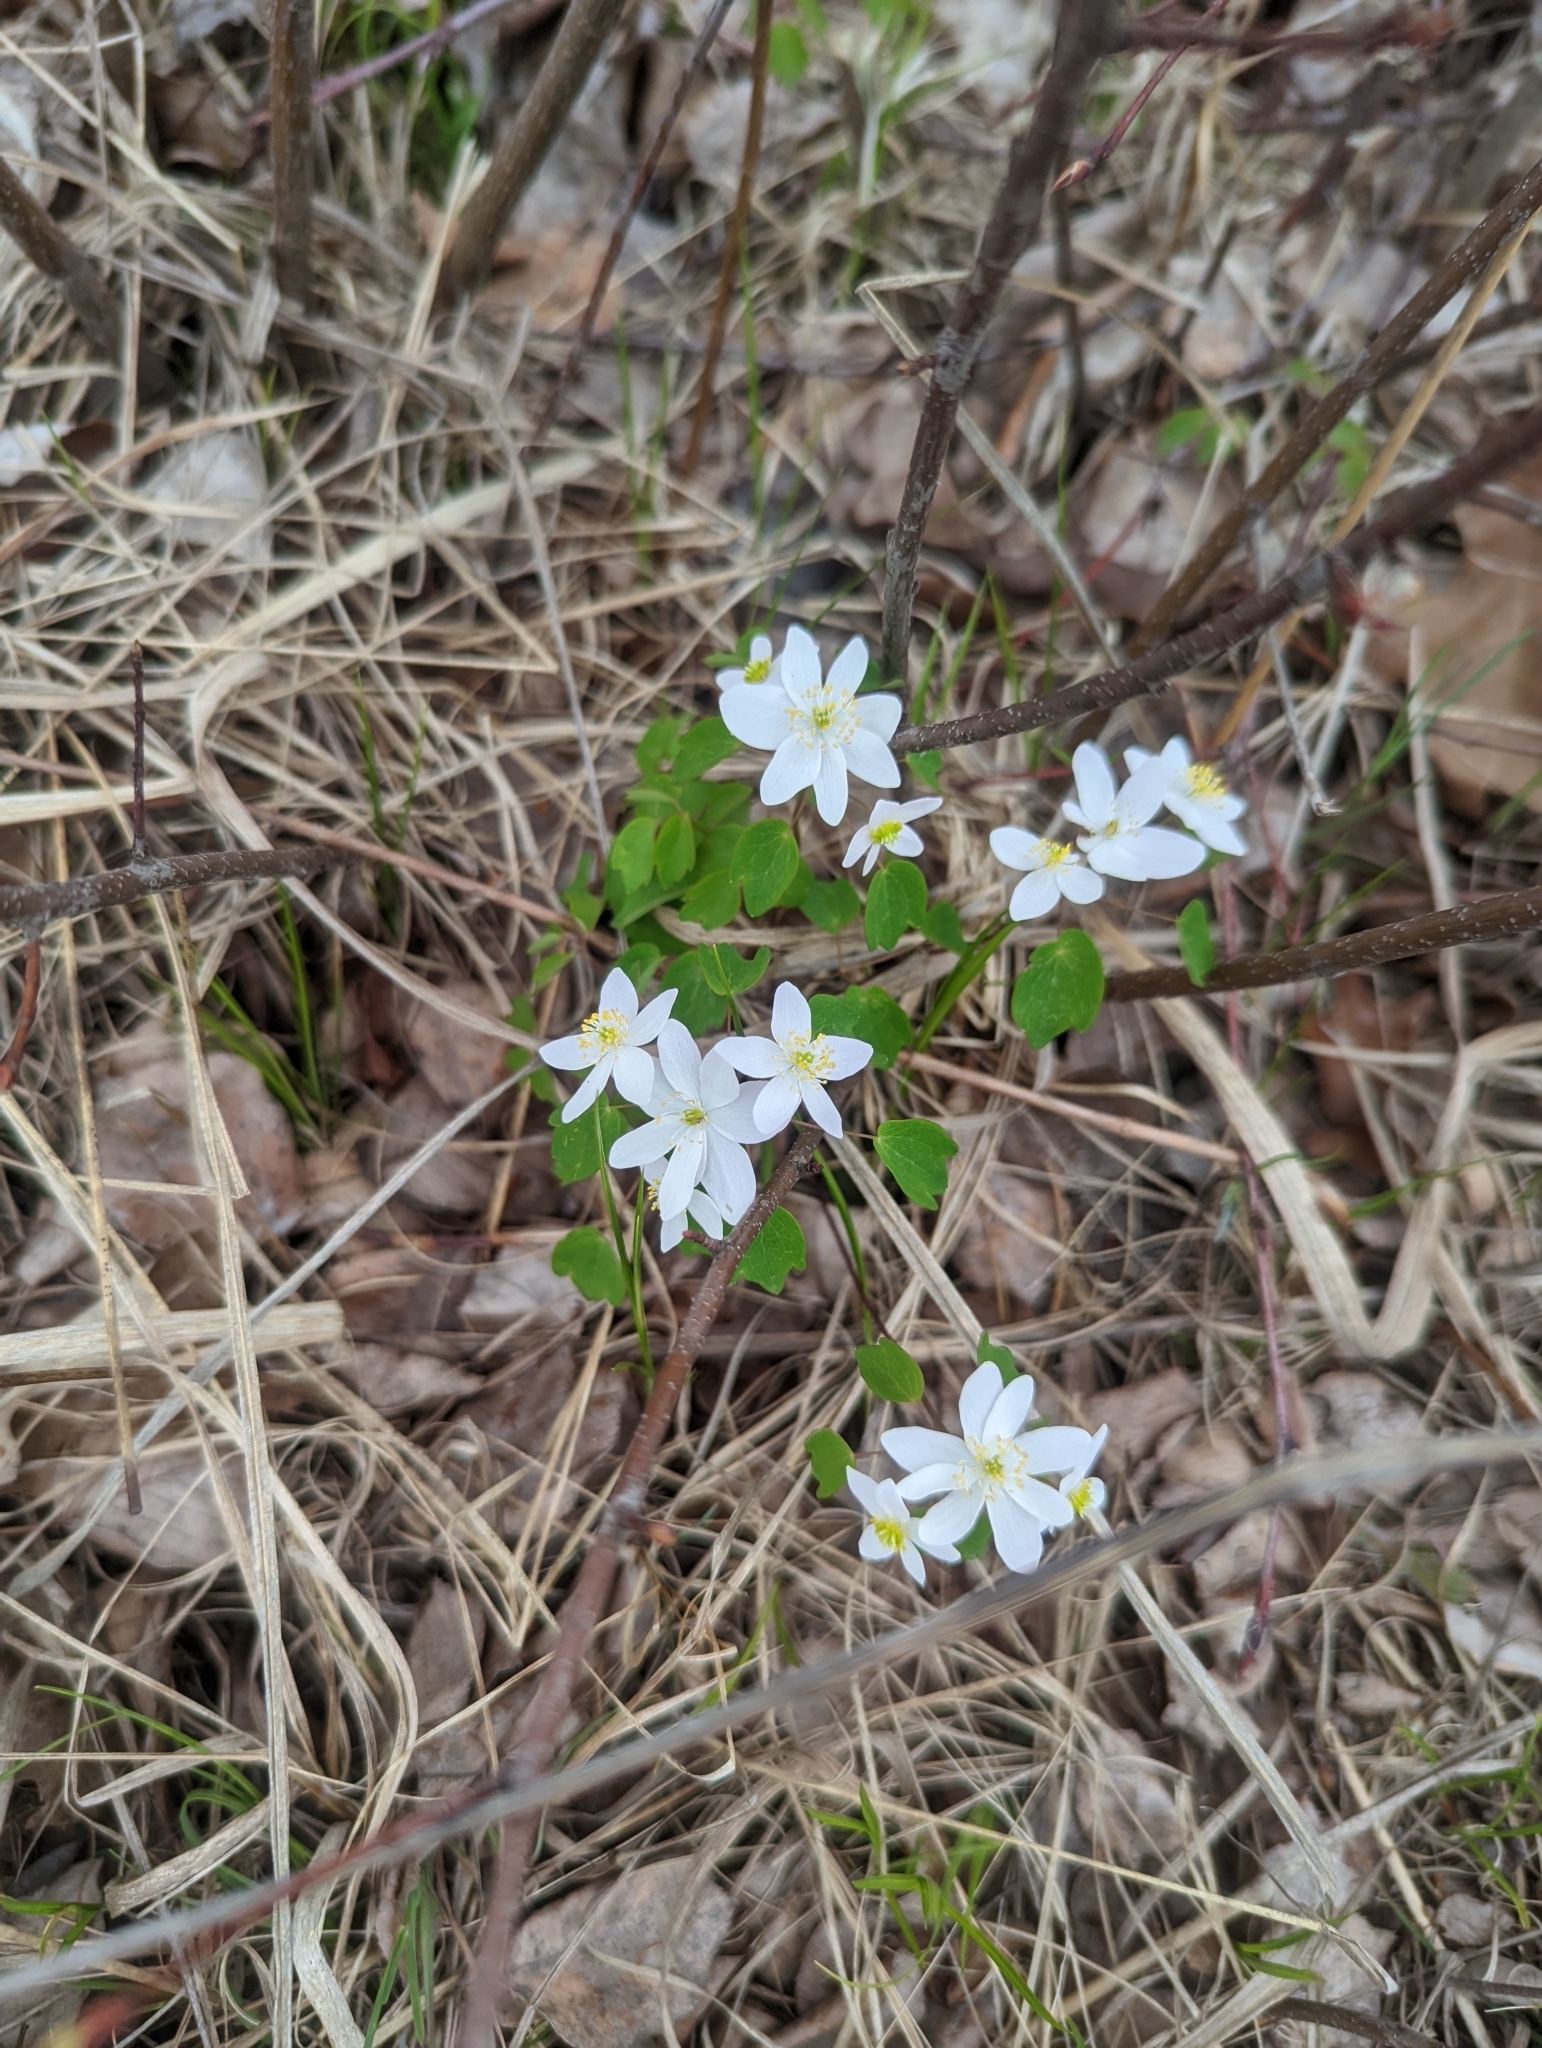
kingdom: Plantae
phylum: Tracheophyta
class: Magnoliopsida
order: Ranunculales
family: Ranunculaceae
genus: Thalictrum
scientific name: Thalictrum thalictroides
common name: Rue-anemone
